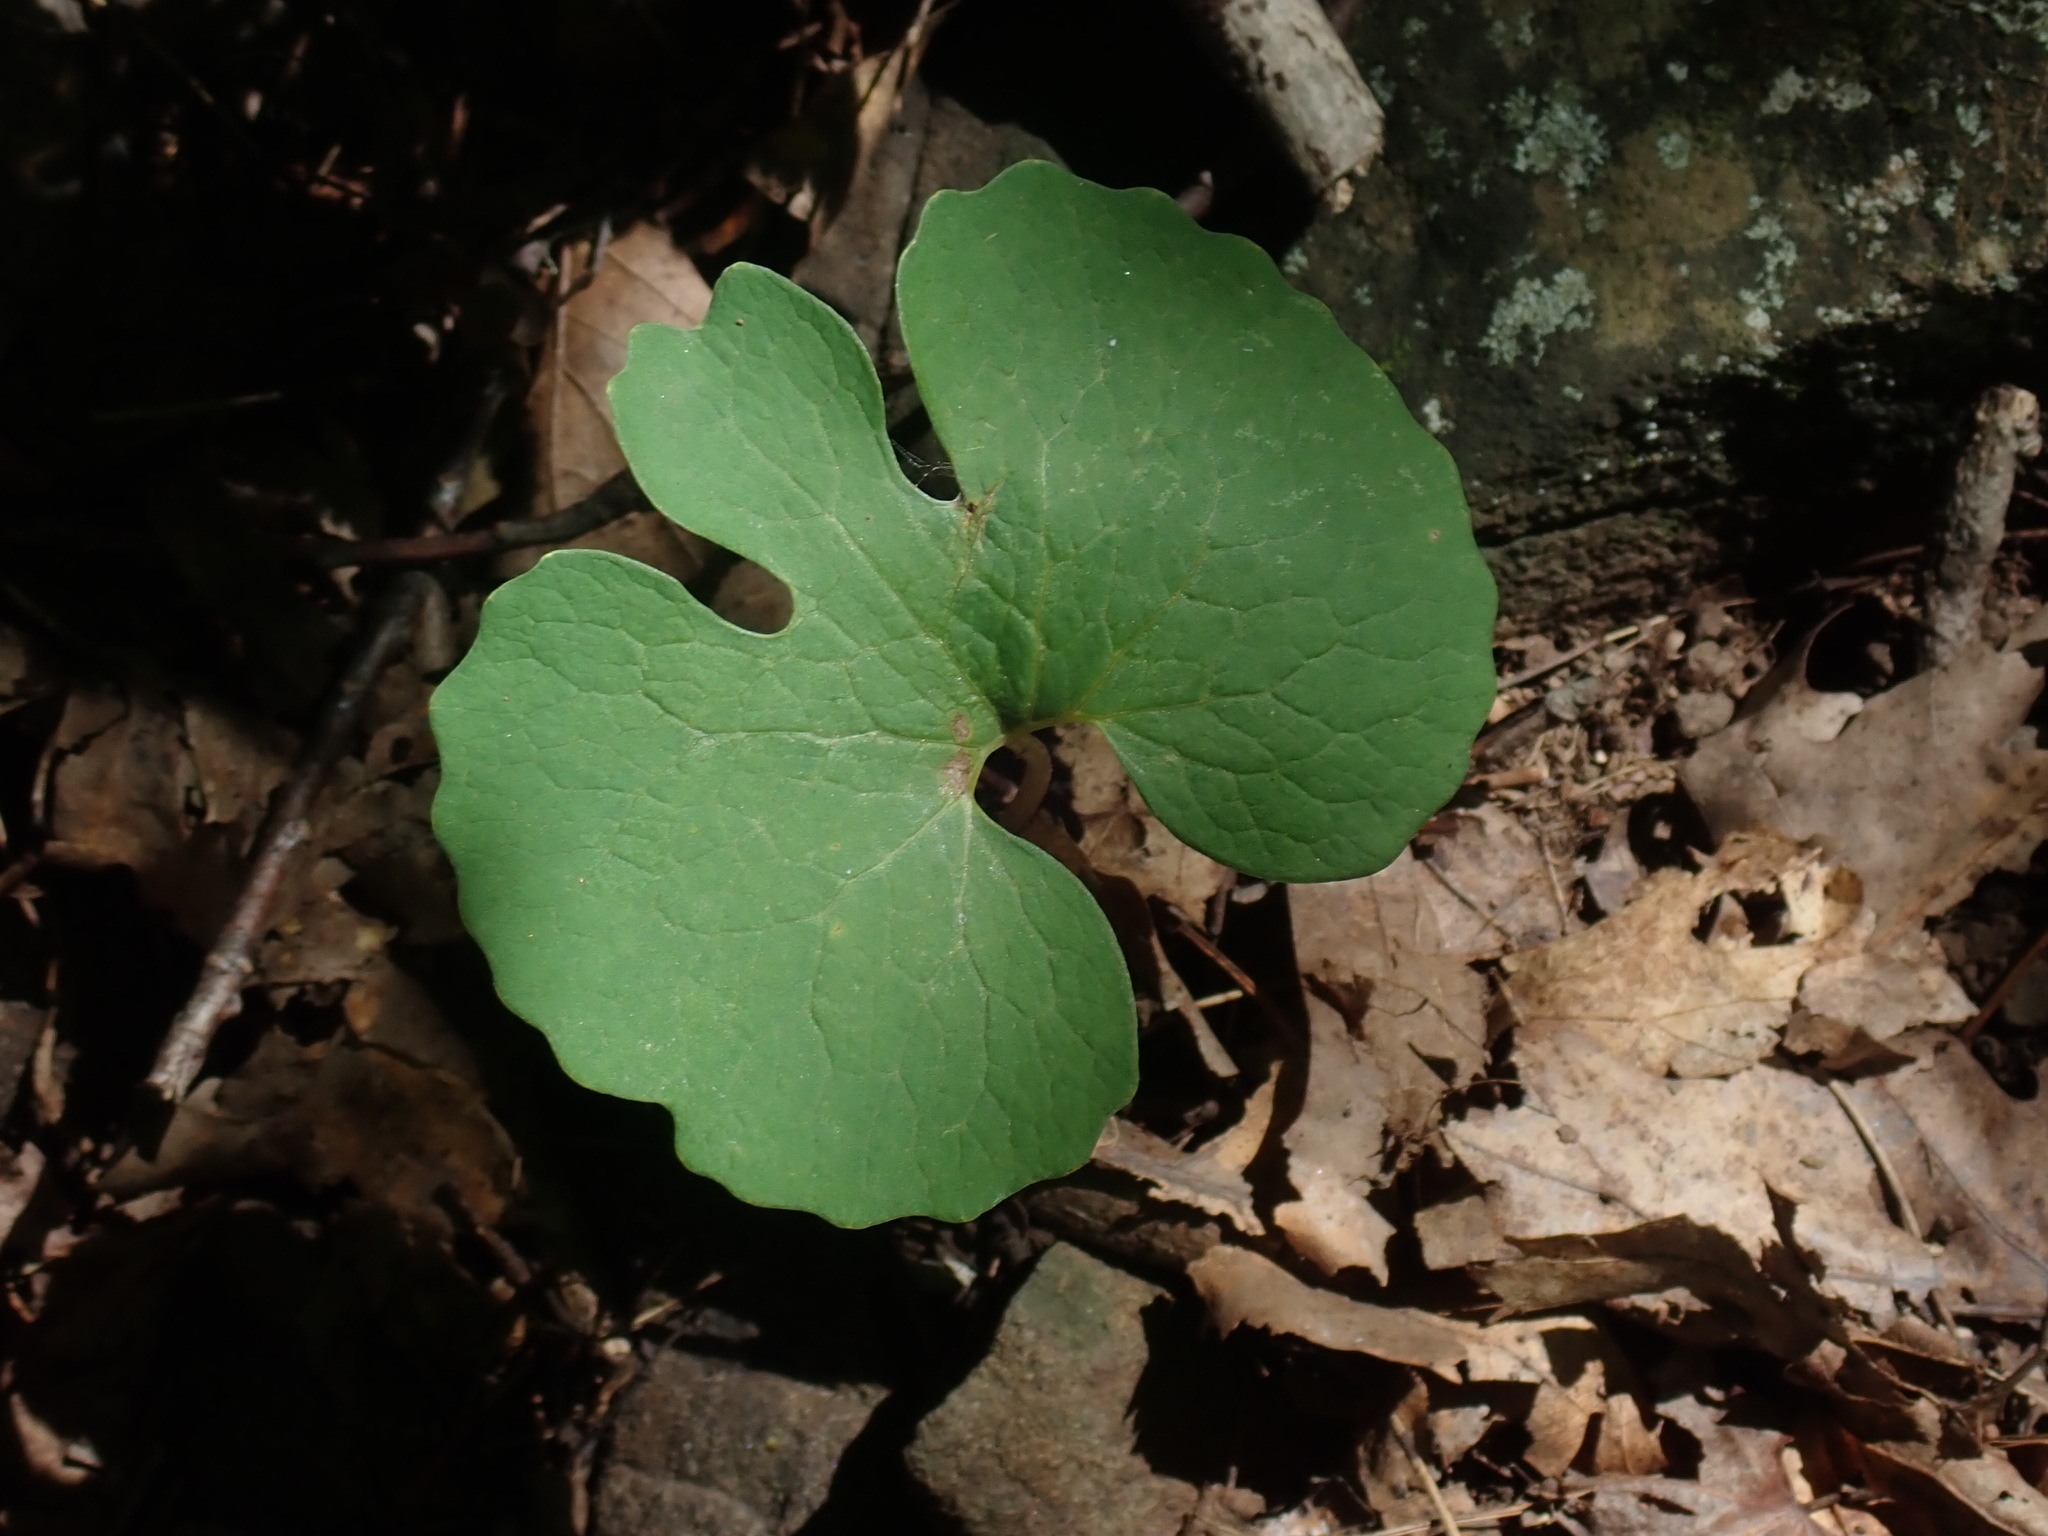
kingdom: Plantae
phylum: Tracheophyta
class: Magnoliopsida
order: Ranunculales
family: Papaveraceae
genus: Sanguinaria
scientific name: Sanguinaria canadensis
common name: Bloodroot
